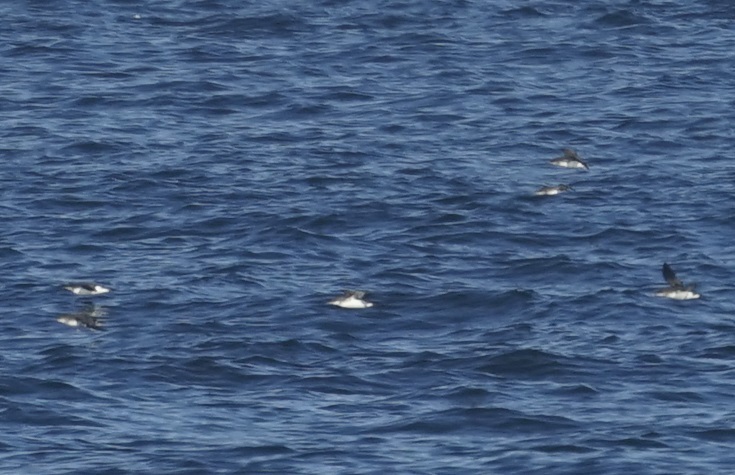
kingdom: Animalia
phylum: Chordata
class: Aves
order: Procellariiformes
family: Procellariidae
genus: Puffinus
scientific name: Puffinus gavia
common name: Fluttering shearwater
